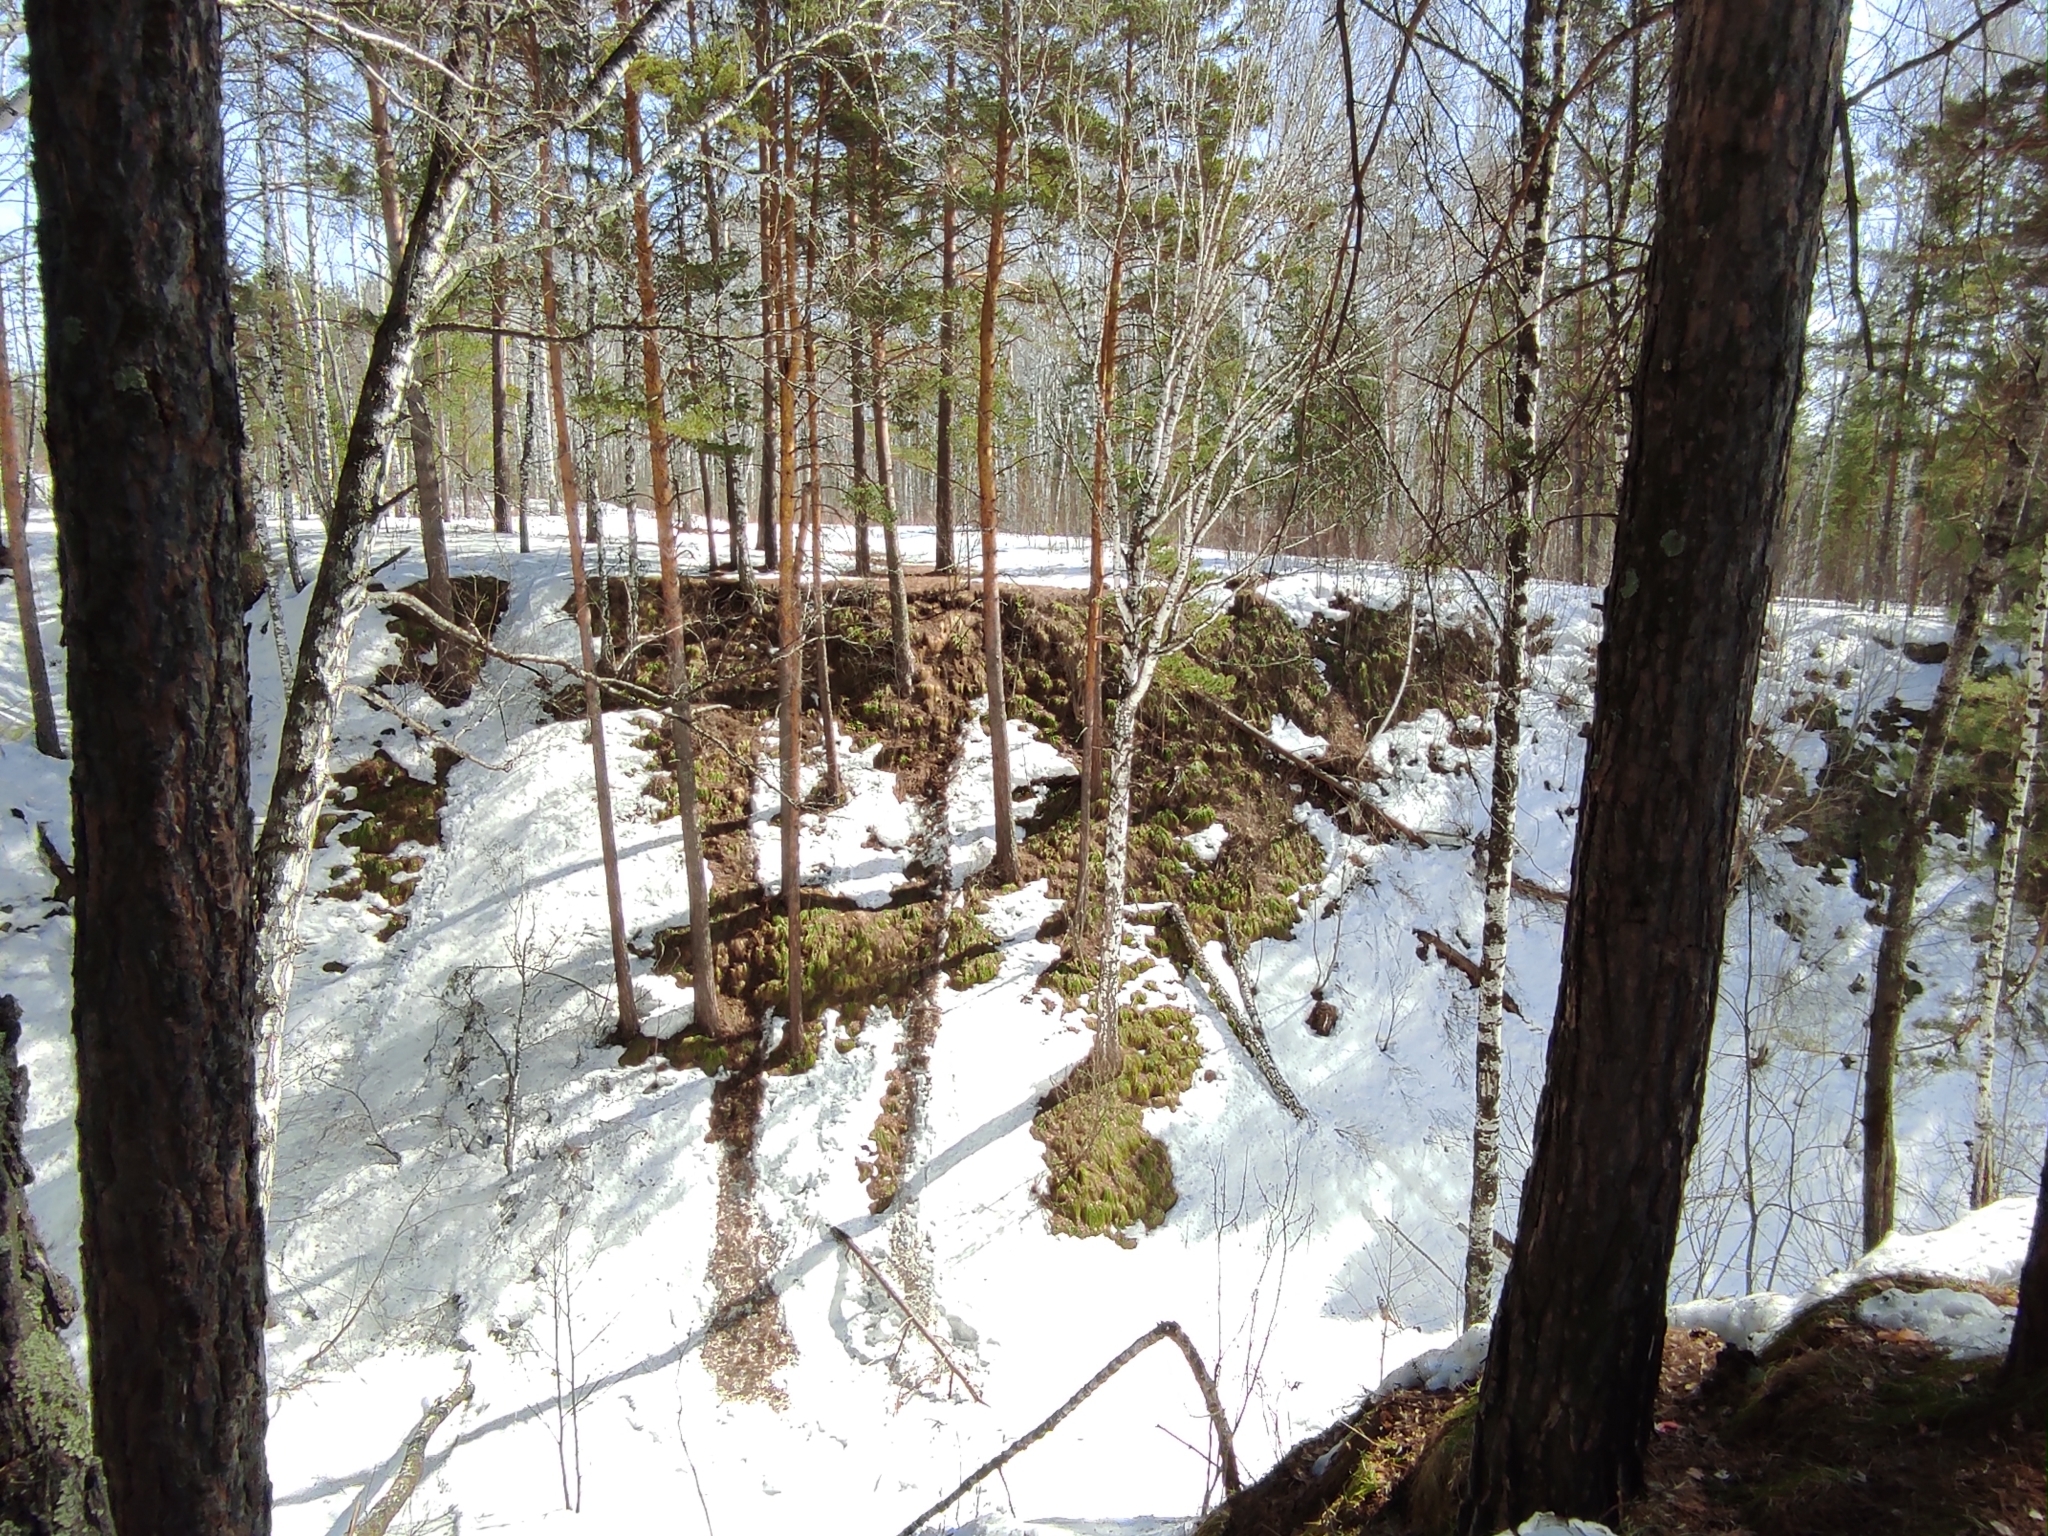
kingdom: Plantae
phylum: Tracheophyta
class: Pinopsida
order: Pinales
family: Pinaceae
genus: Pinus
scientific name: Pinus sylvestris
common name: Scots pine
